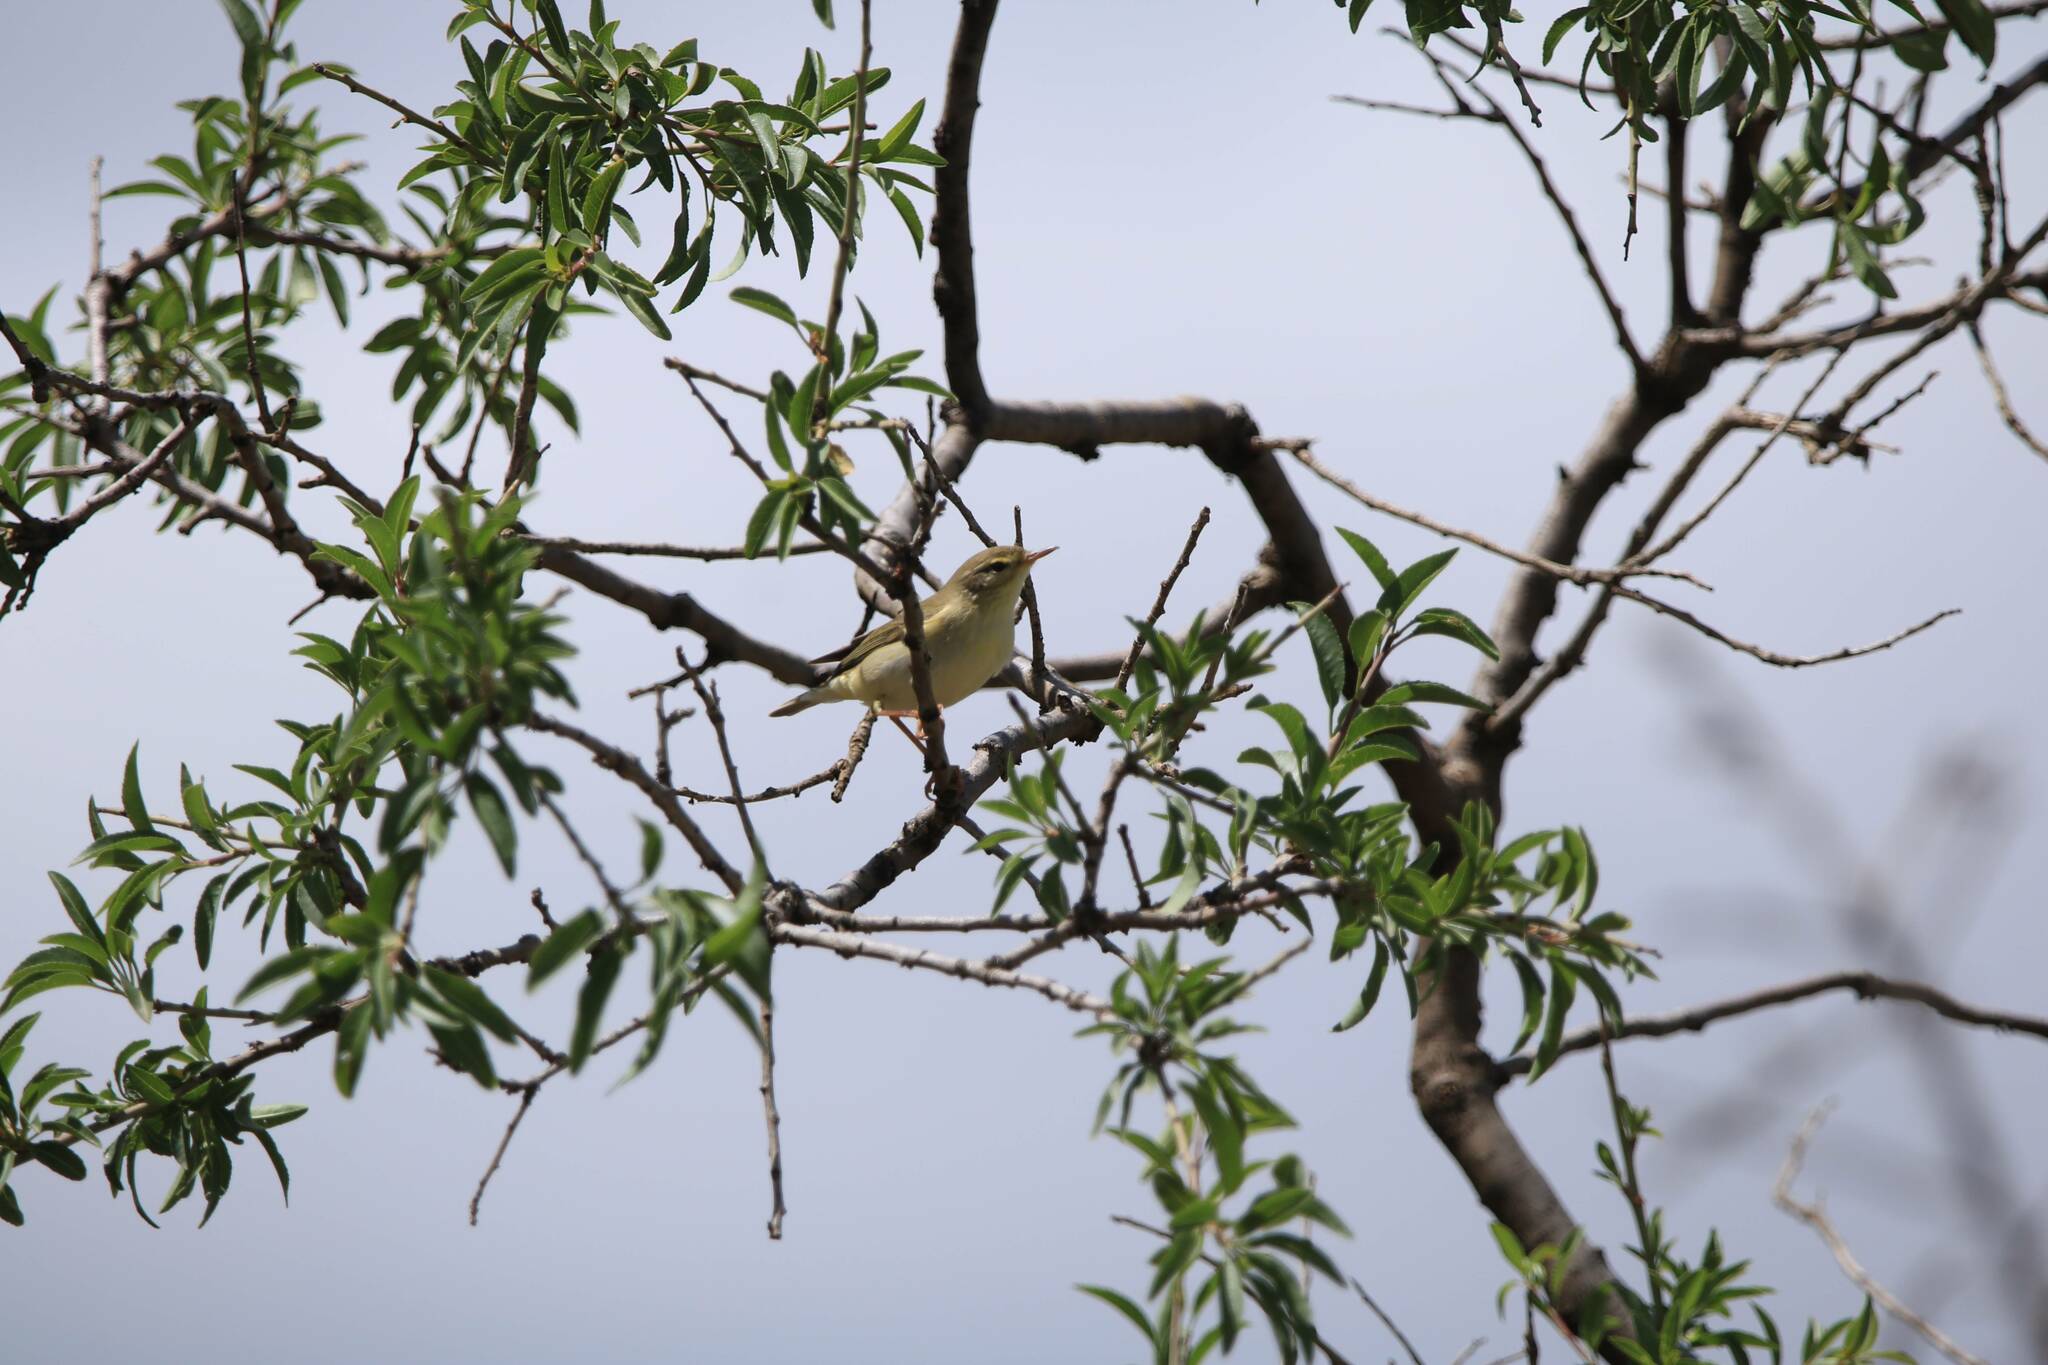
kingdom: Animalia
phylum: Chordata
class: Aves
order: Passeriformes
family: Phylloscopidae
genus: Phylloscopus
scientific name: Phylloscopus trochilus
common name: Willow warbler
